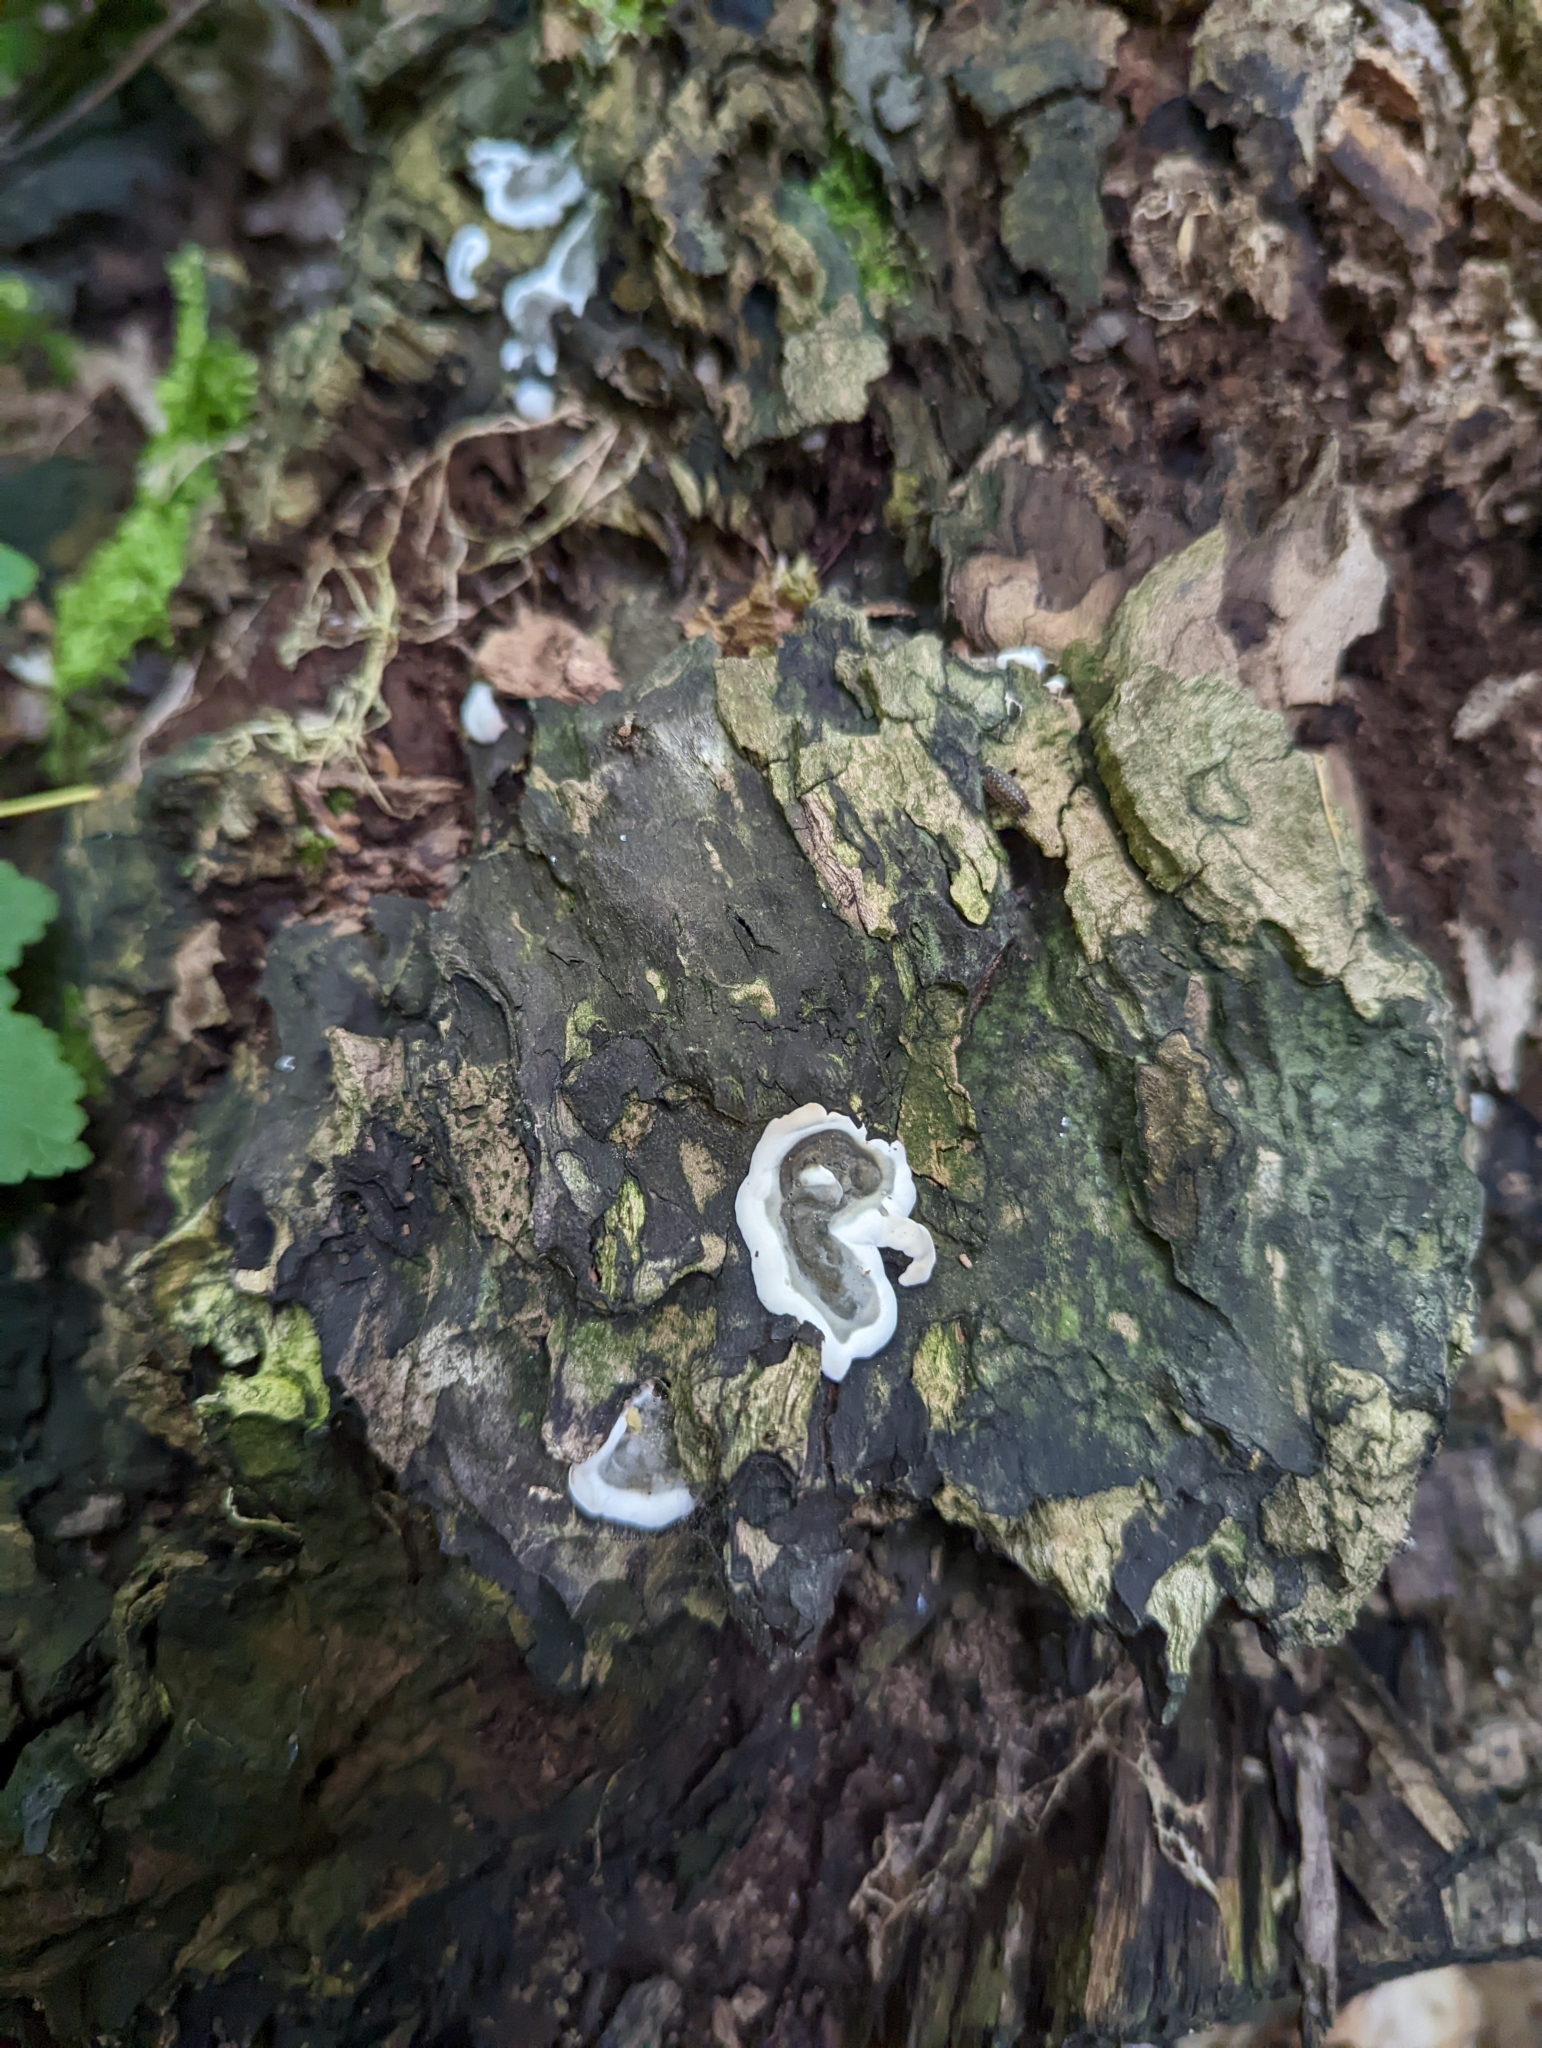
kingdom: Fungi
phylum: Ascomycota
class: Sordariomycetes
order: Xylariales
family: Xylariaceae
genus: Kretzschmaria
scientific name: Kretzschmaria deusta
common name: Brittle cinder
